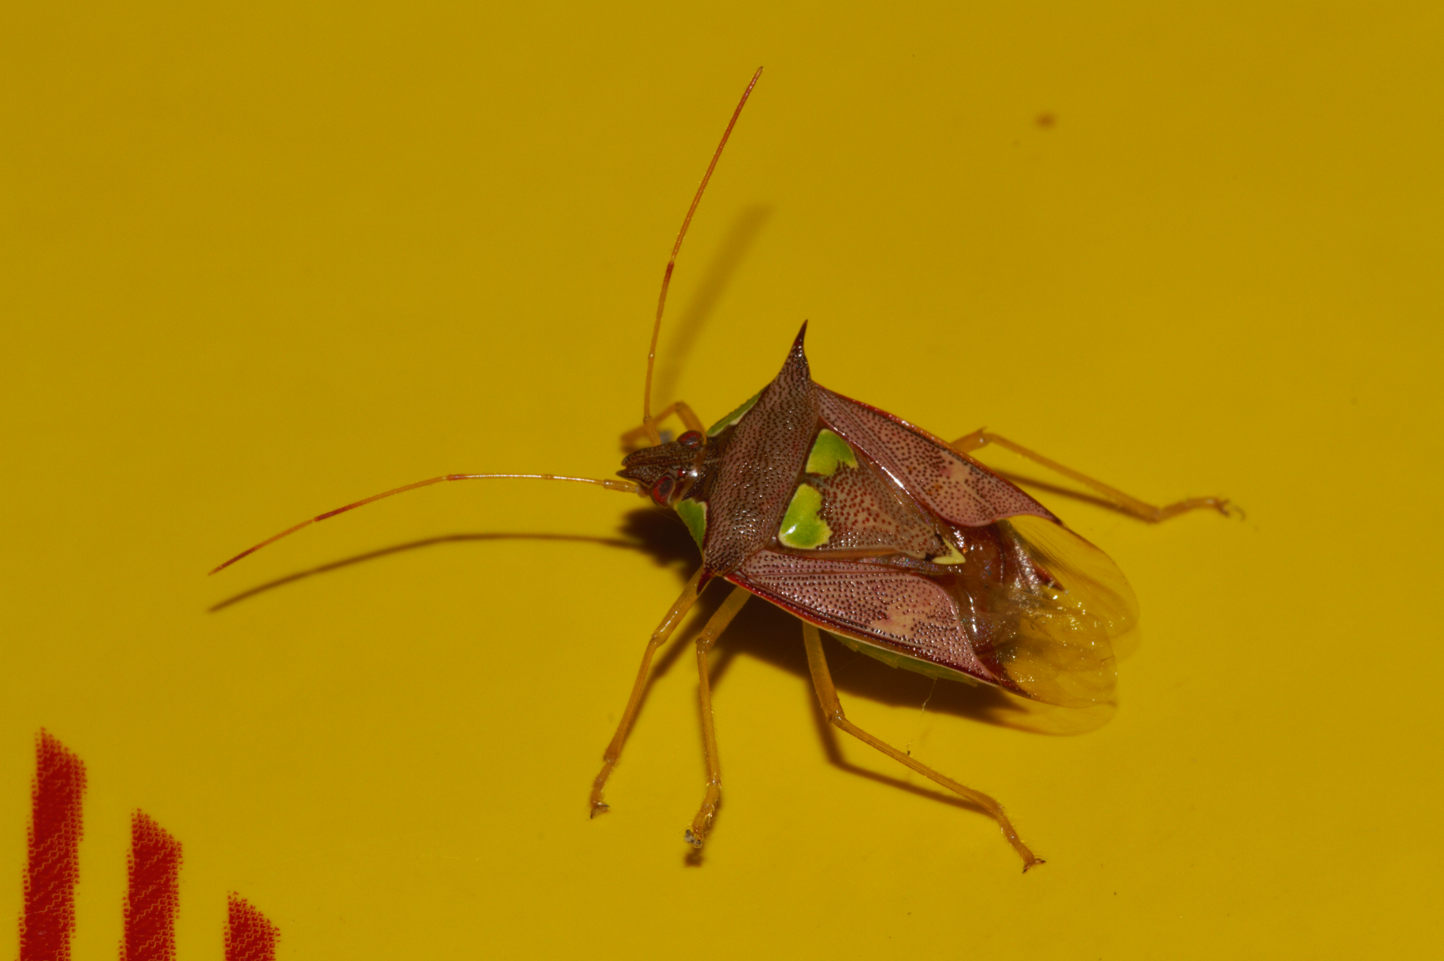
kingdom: Animalia
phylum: Arthropoda
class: Insecta
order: Hemiptera
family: Pentatomidae
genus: Rhyncholepta
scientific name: Rhyncholepta grandicallosa
